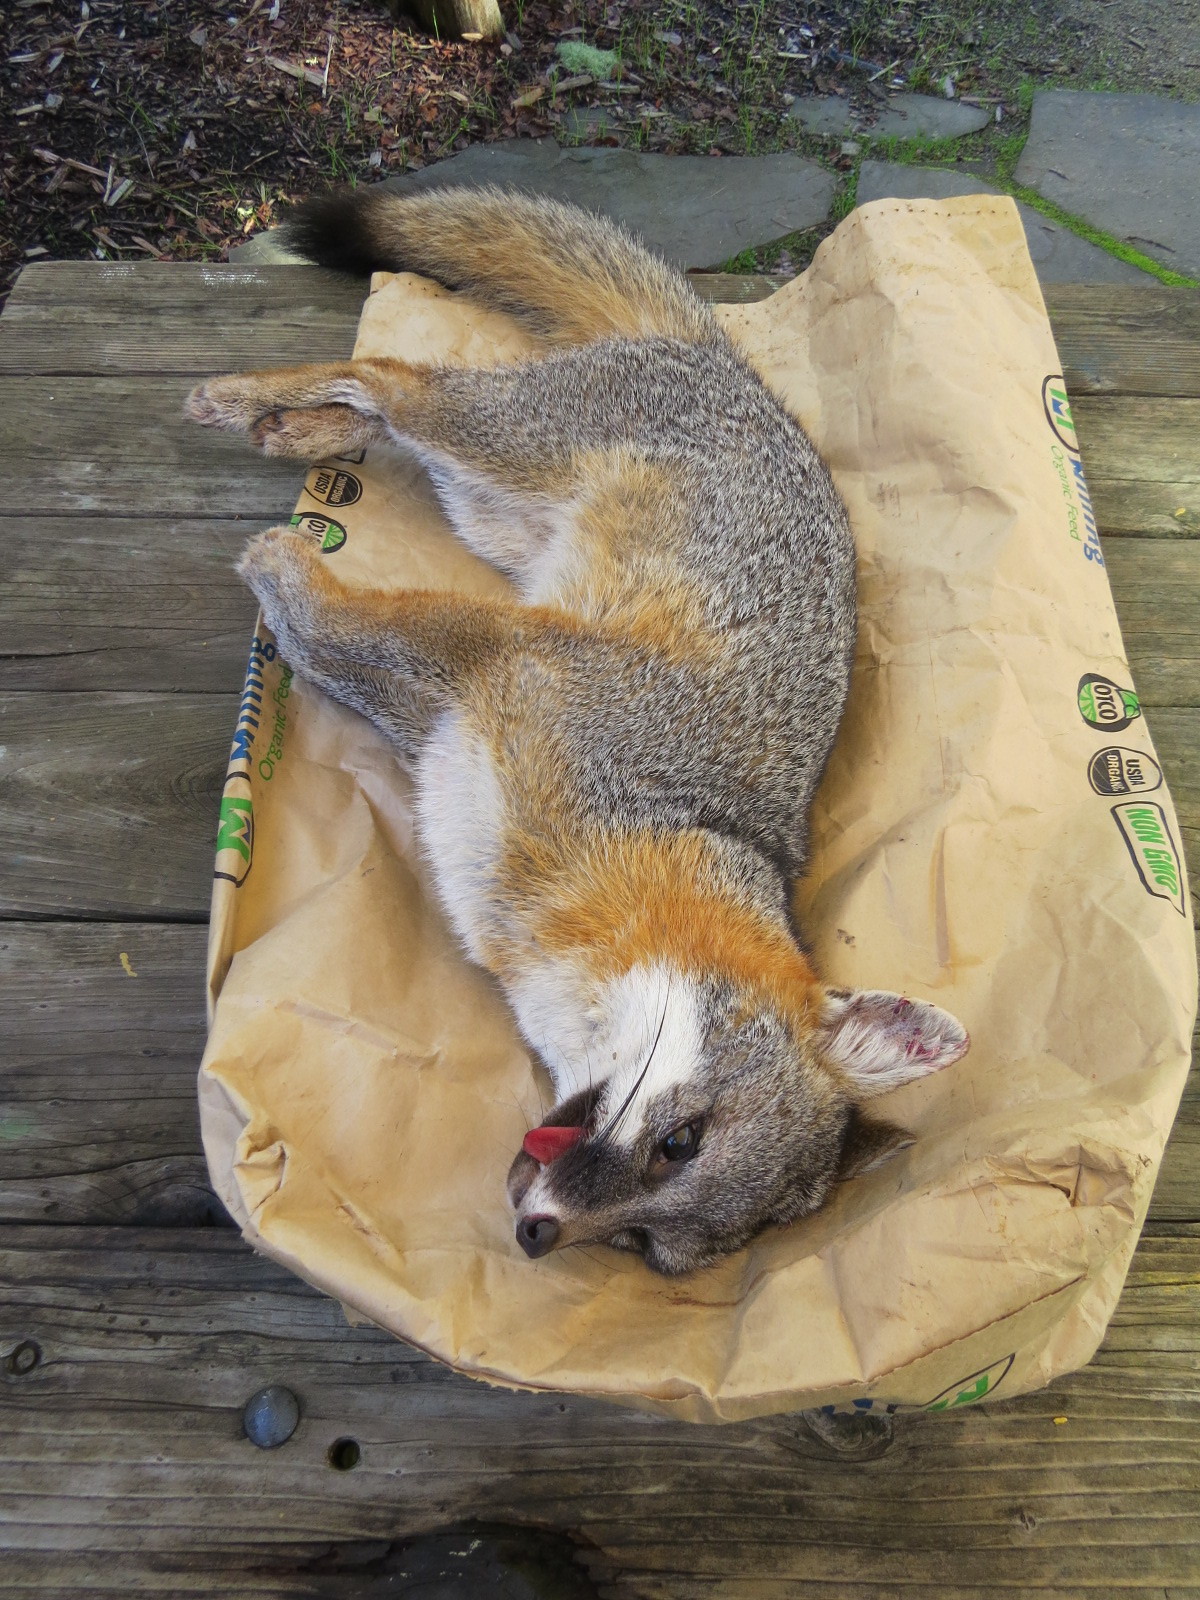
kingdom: Animalia
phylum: Chordata
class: Mammalia
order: Carnivora
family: Canidae
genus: Urocyon
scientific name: Urocyon cinereoargenteus
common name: Gray fox
